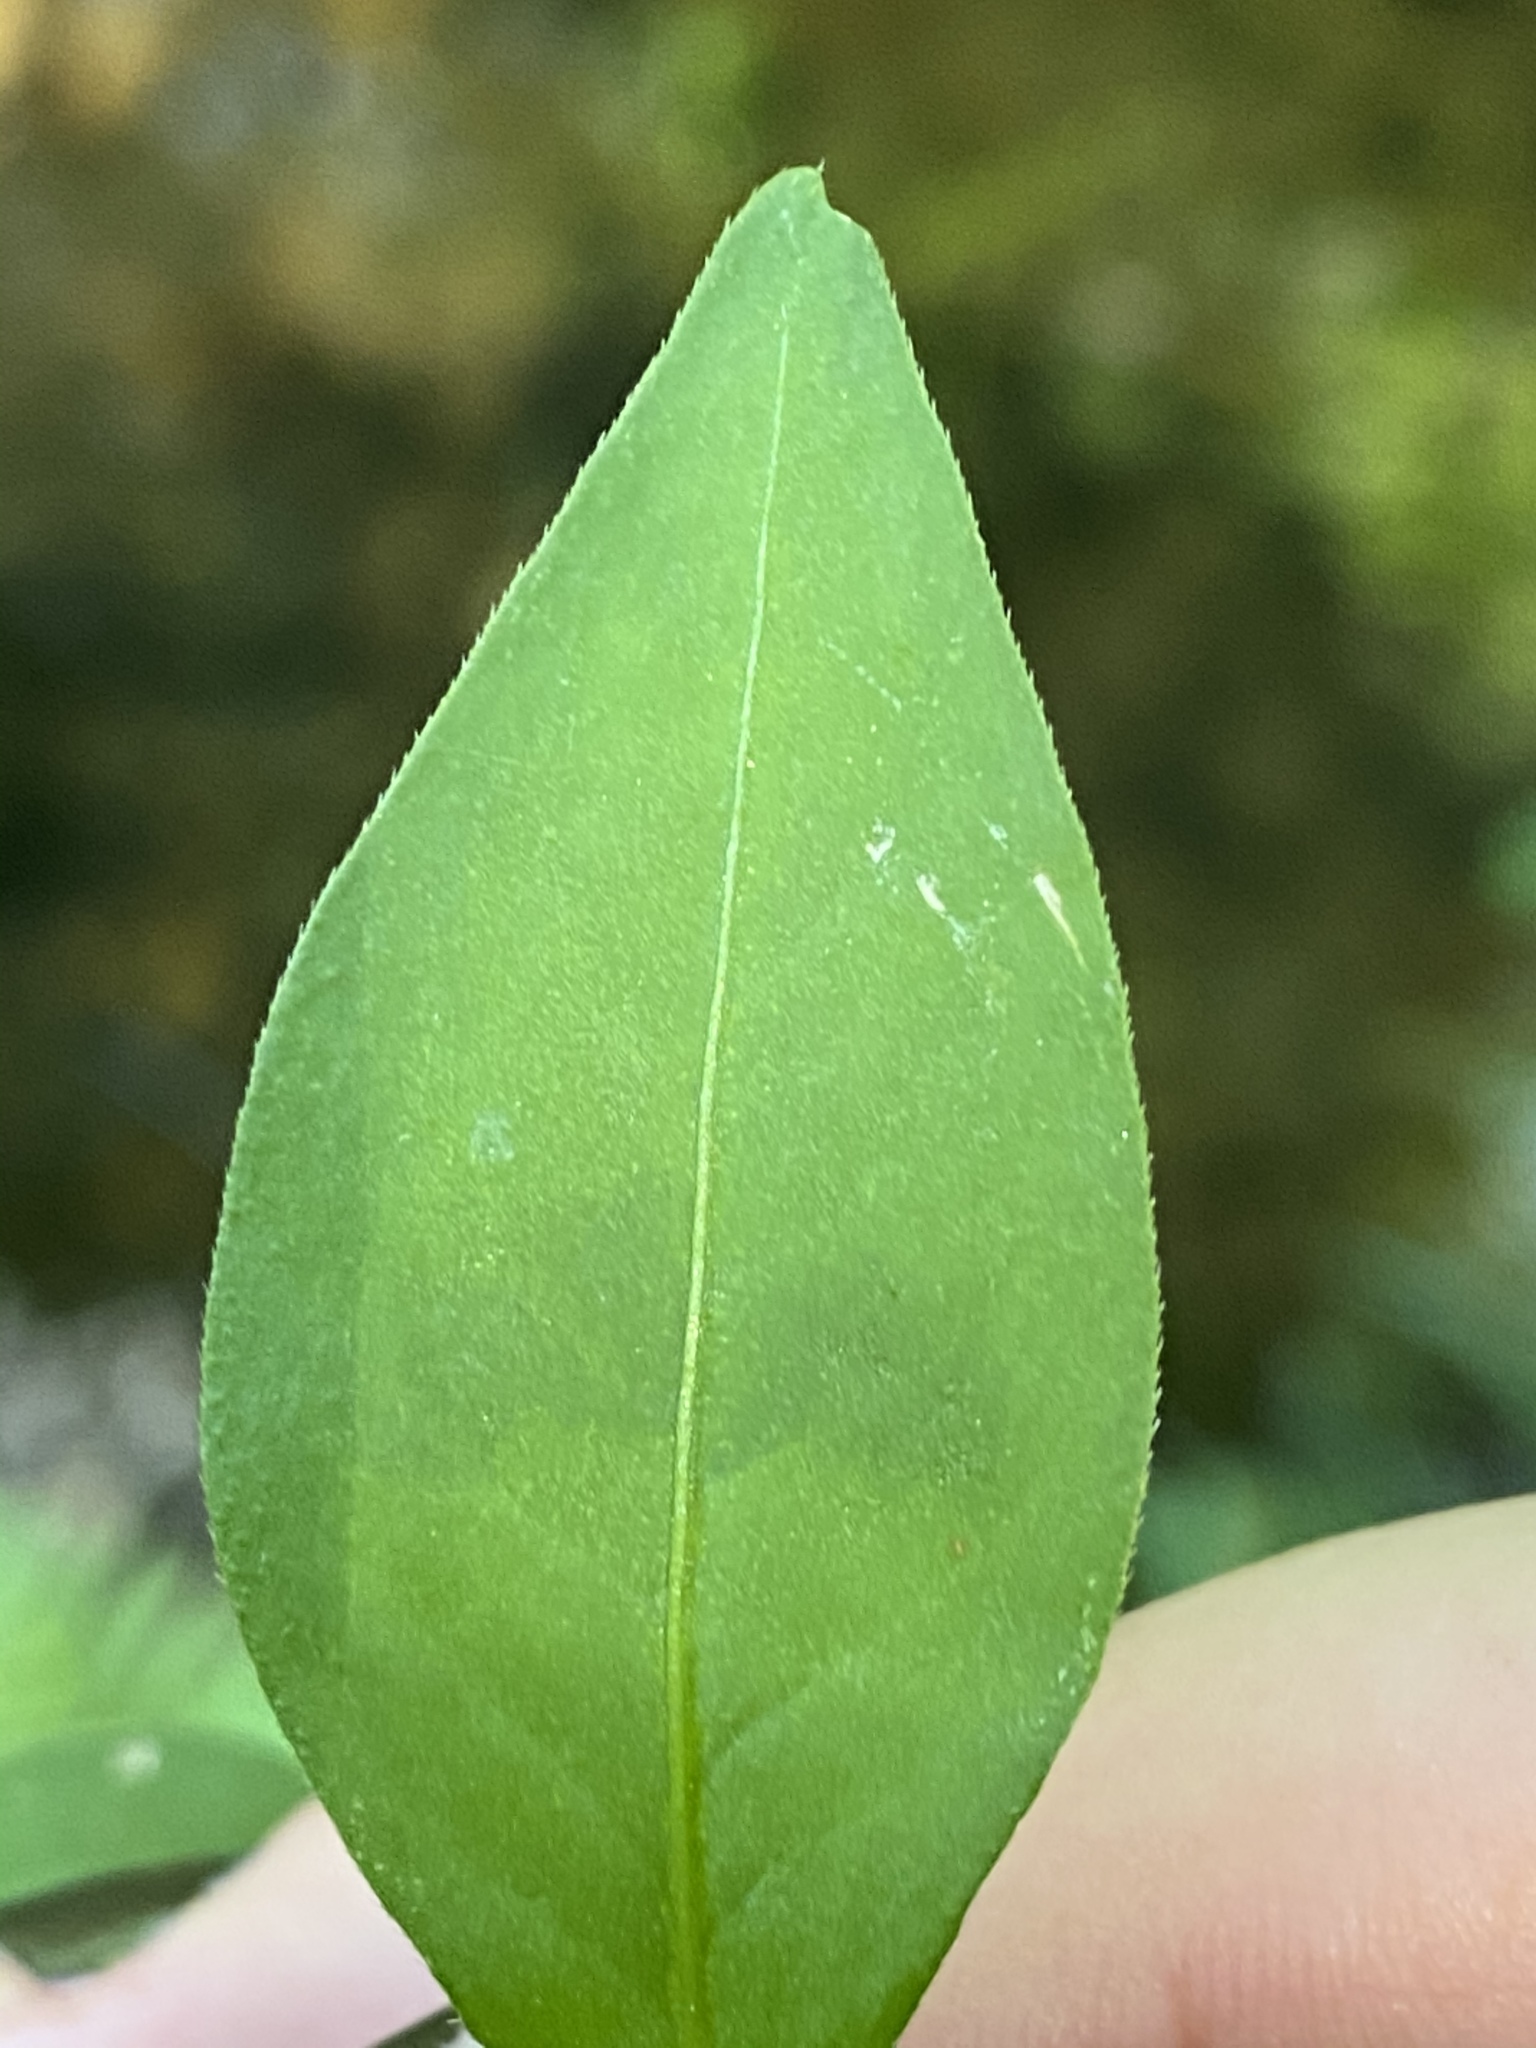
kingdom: Plantae
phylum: Tracheophyta
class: Magnoliopsida
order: Caryophyllales
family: Polygonaceae
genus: Persicaria
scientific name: Persicaria longiseta
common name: Bristly lady's-thumb
